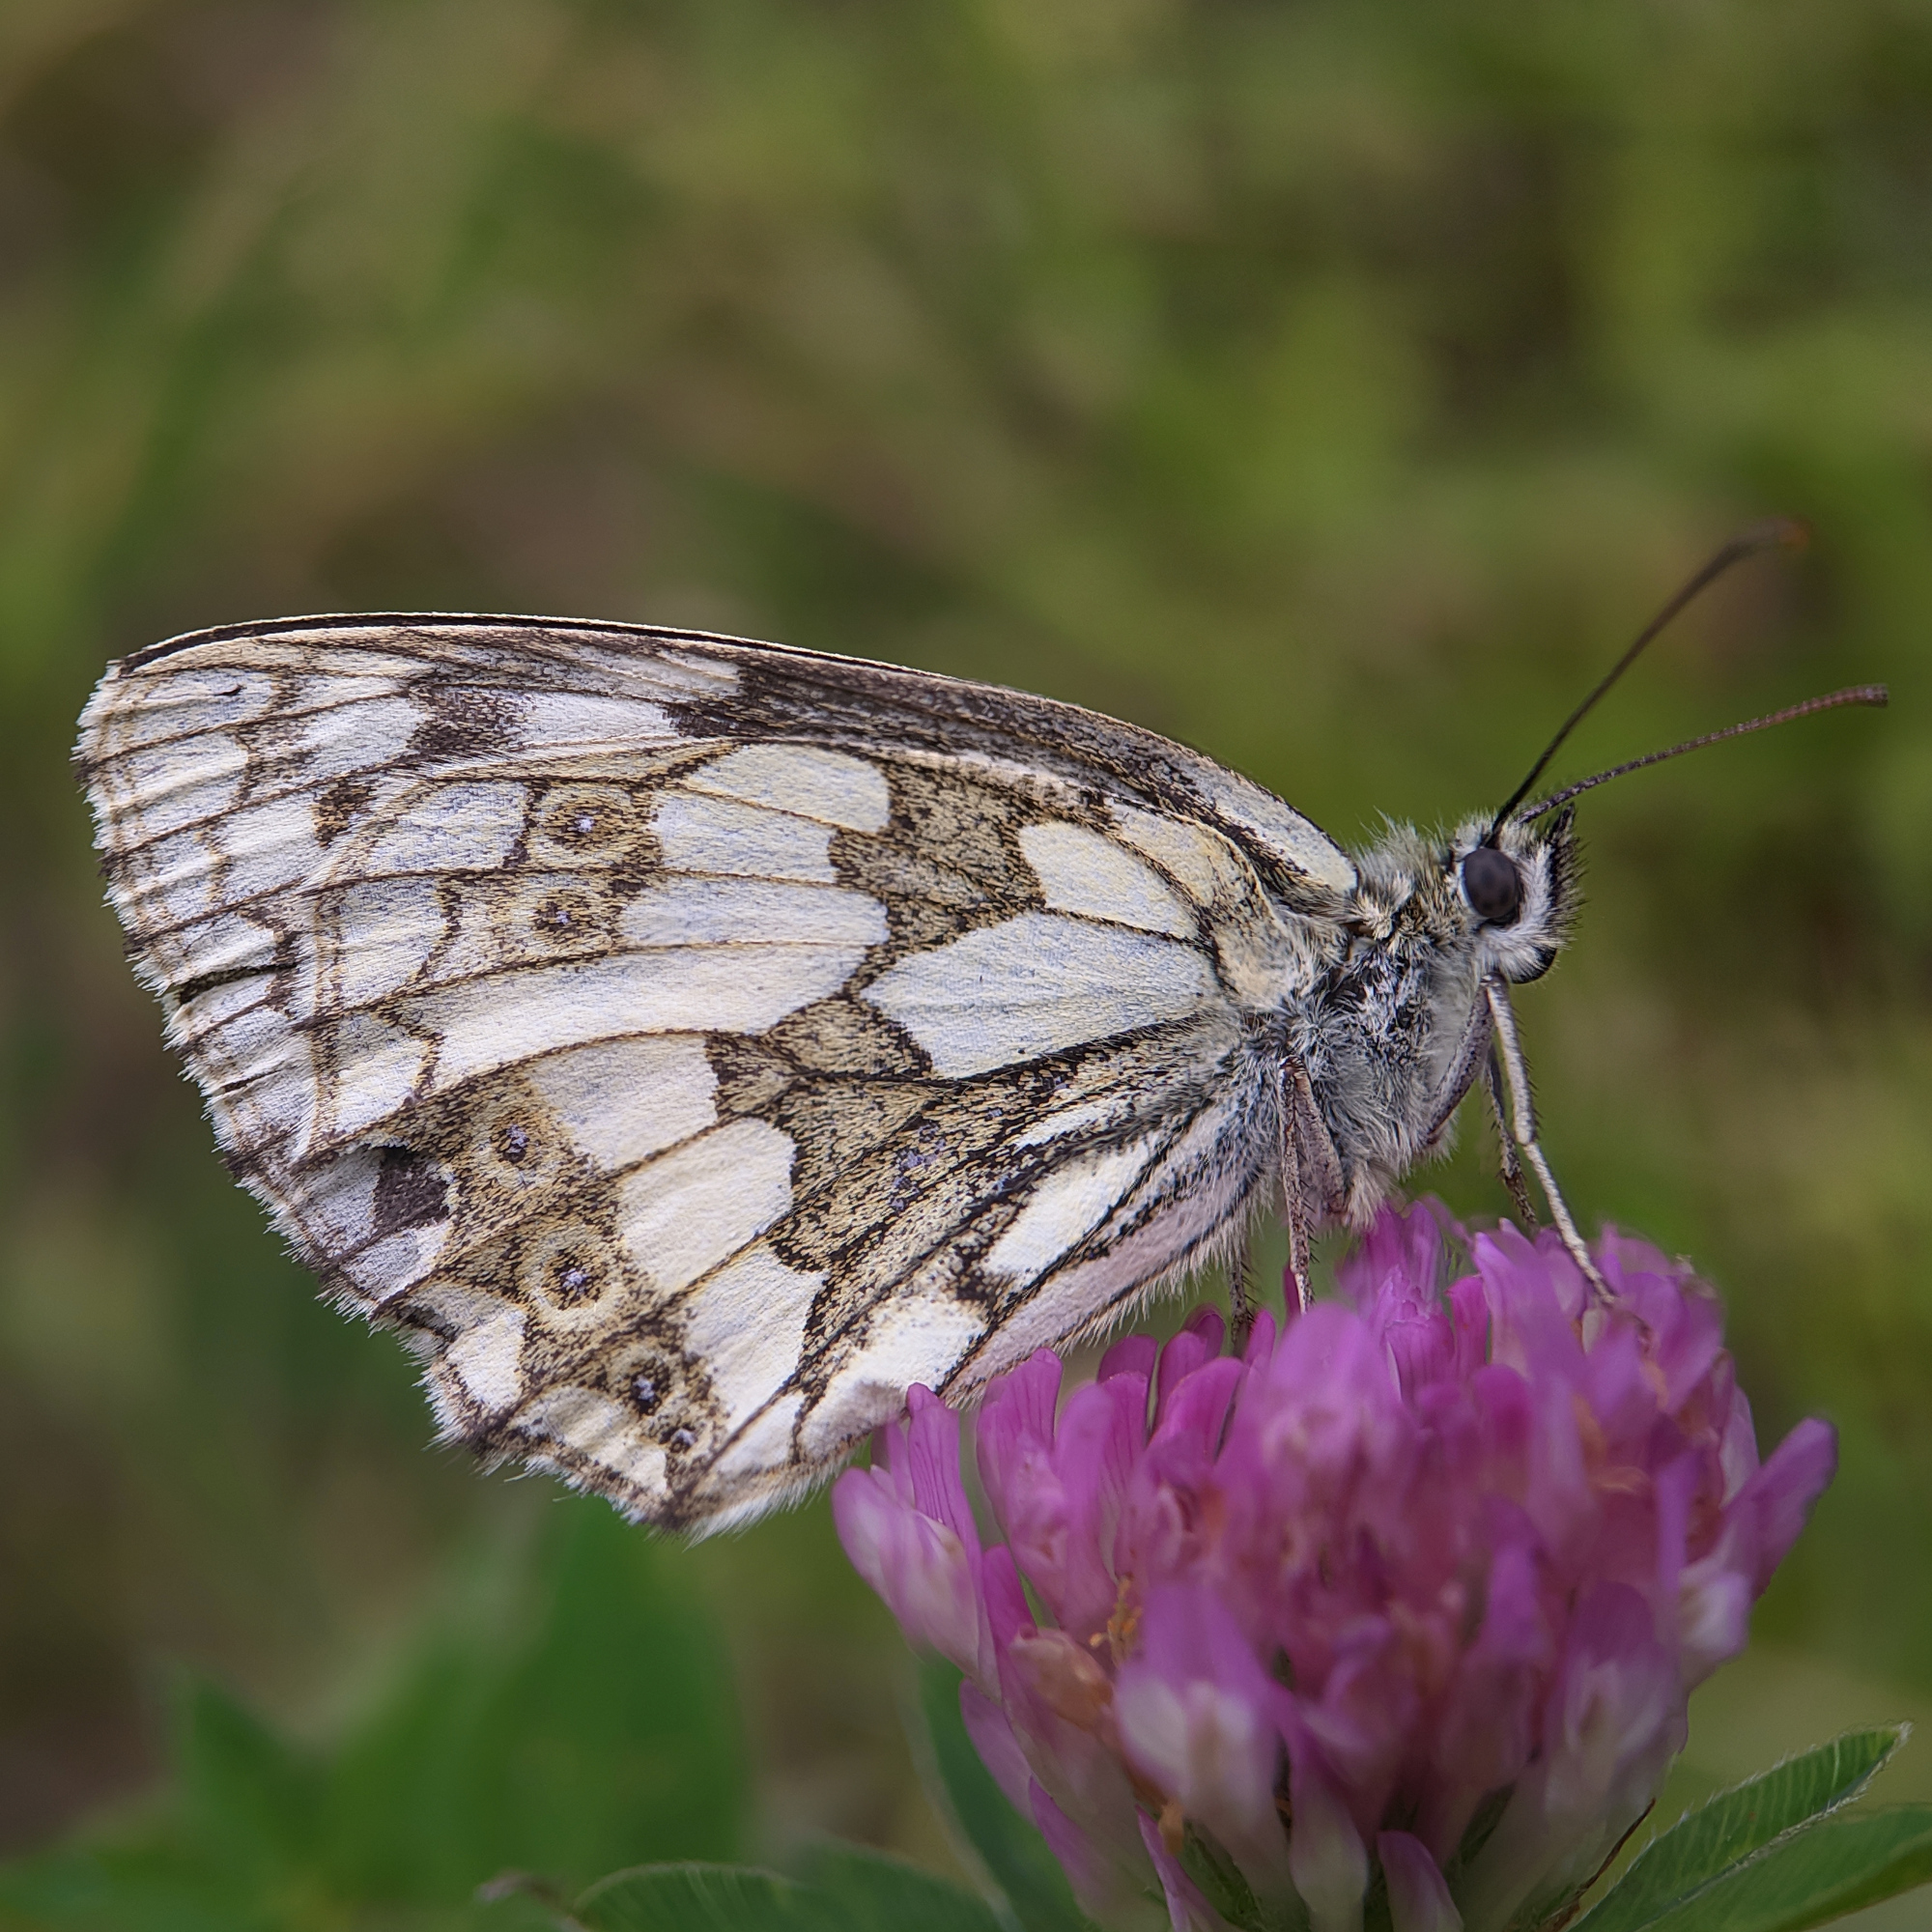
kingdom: Animalia
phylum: Arthropoda
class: Insecta
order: Lepidoptera
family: Nymphalidae
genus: Melanargia
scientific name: Melanargia galathea
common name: Marbled white
